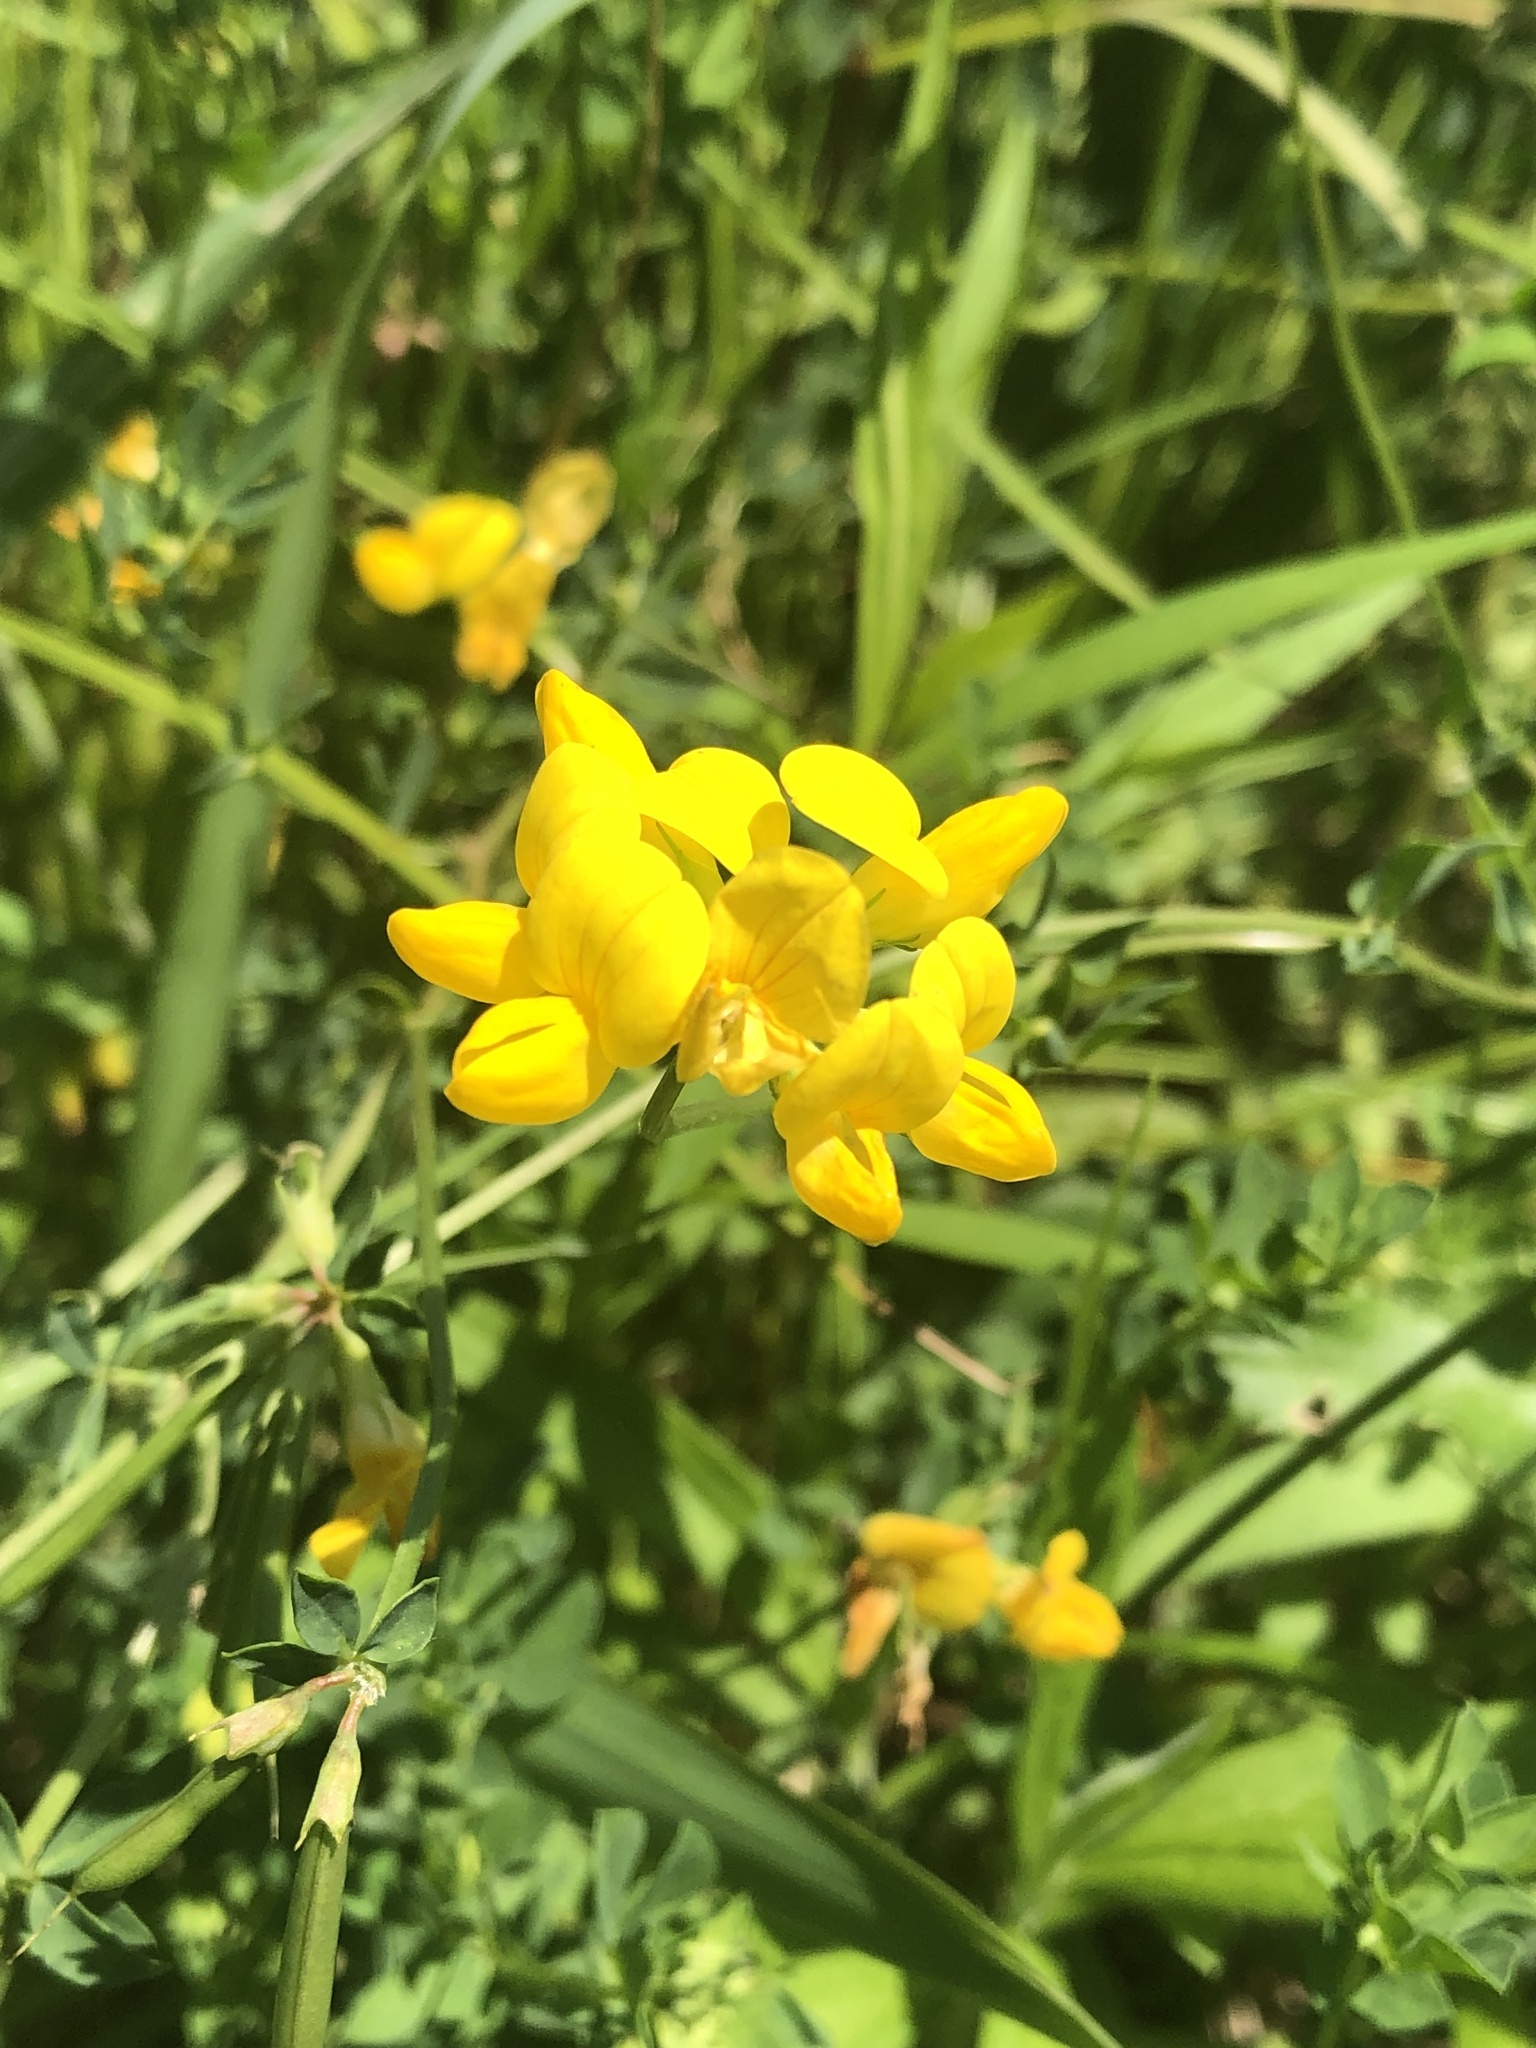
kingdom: Plantae
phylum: Tracheophyta
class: Magnoliopsida
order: Fabales
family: Fabaceae
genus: Lotus
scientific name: Lotus corniculatus
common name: Common bird's-foot-trefoil
